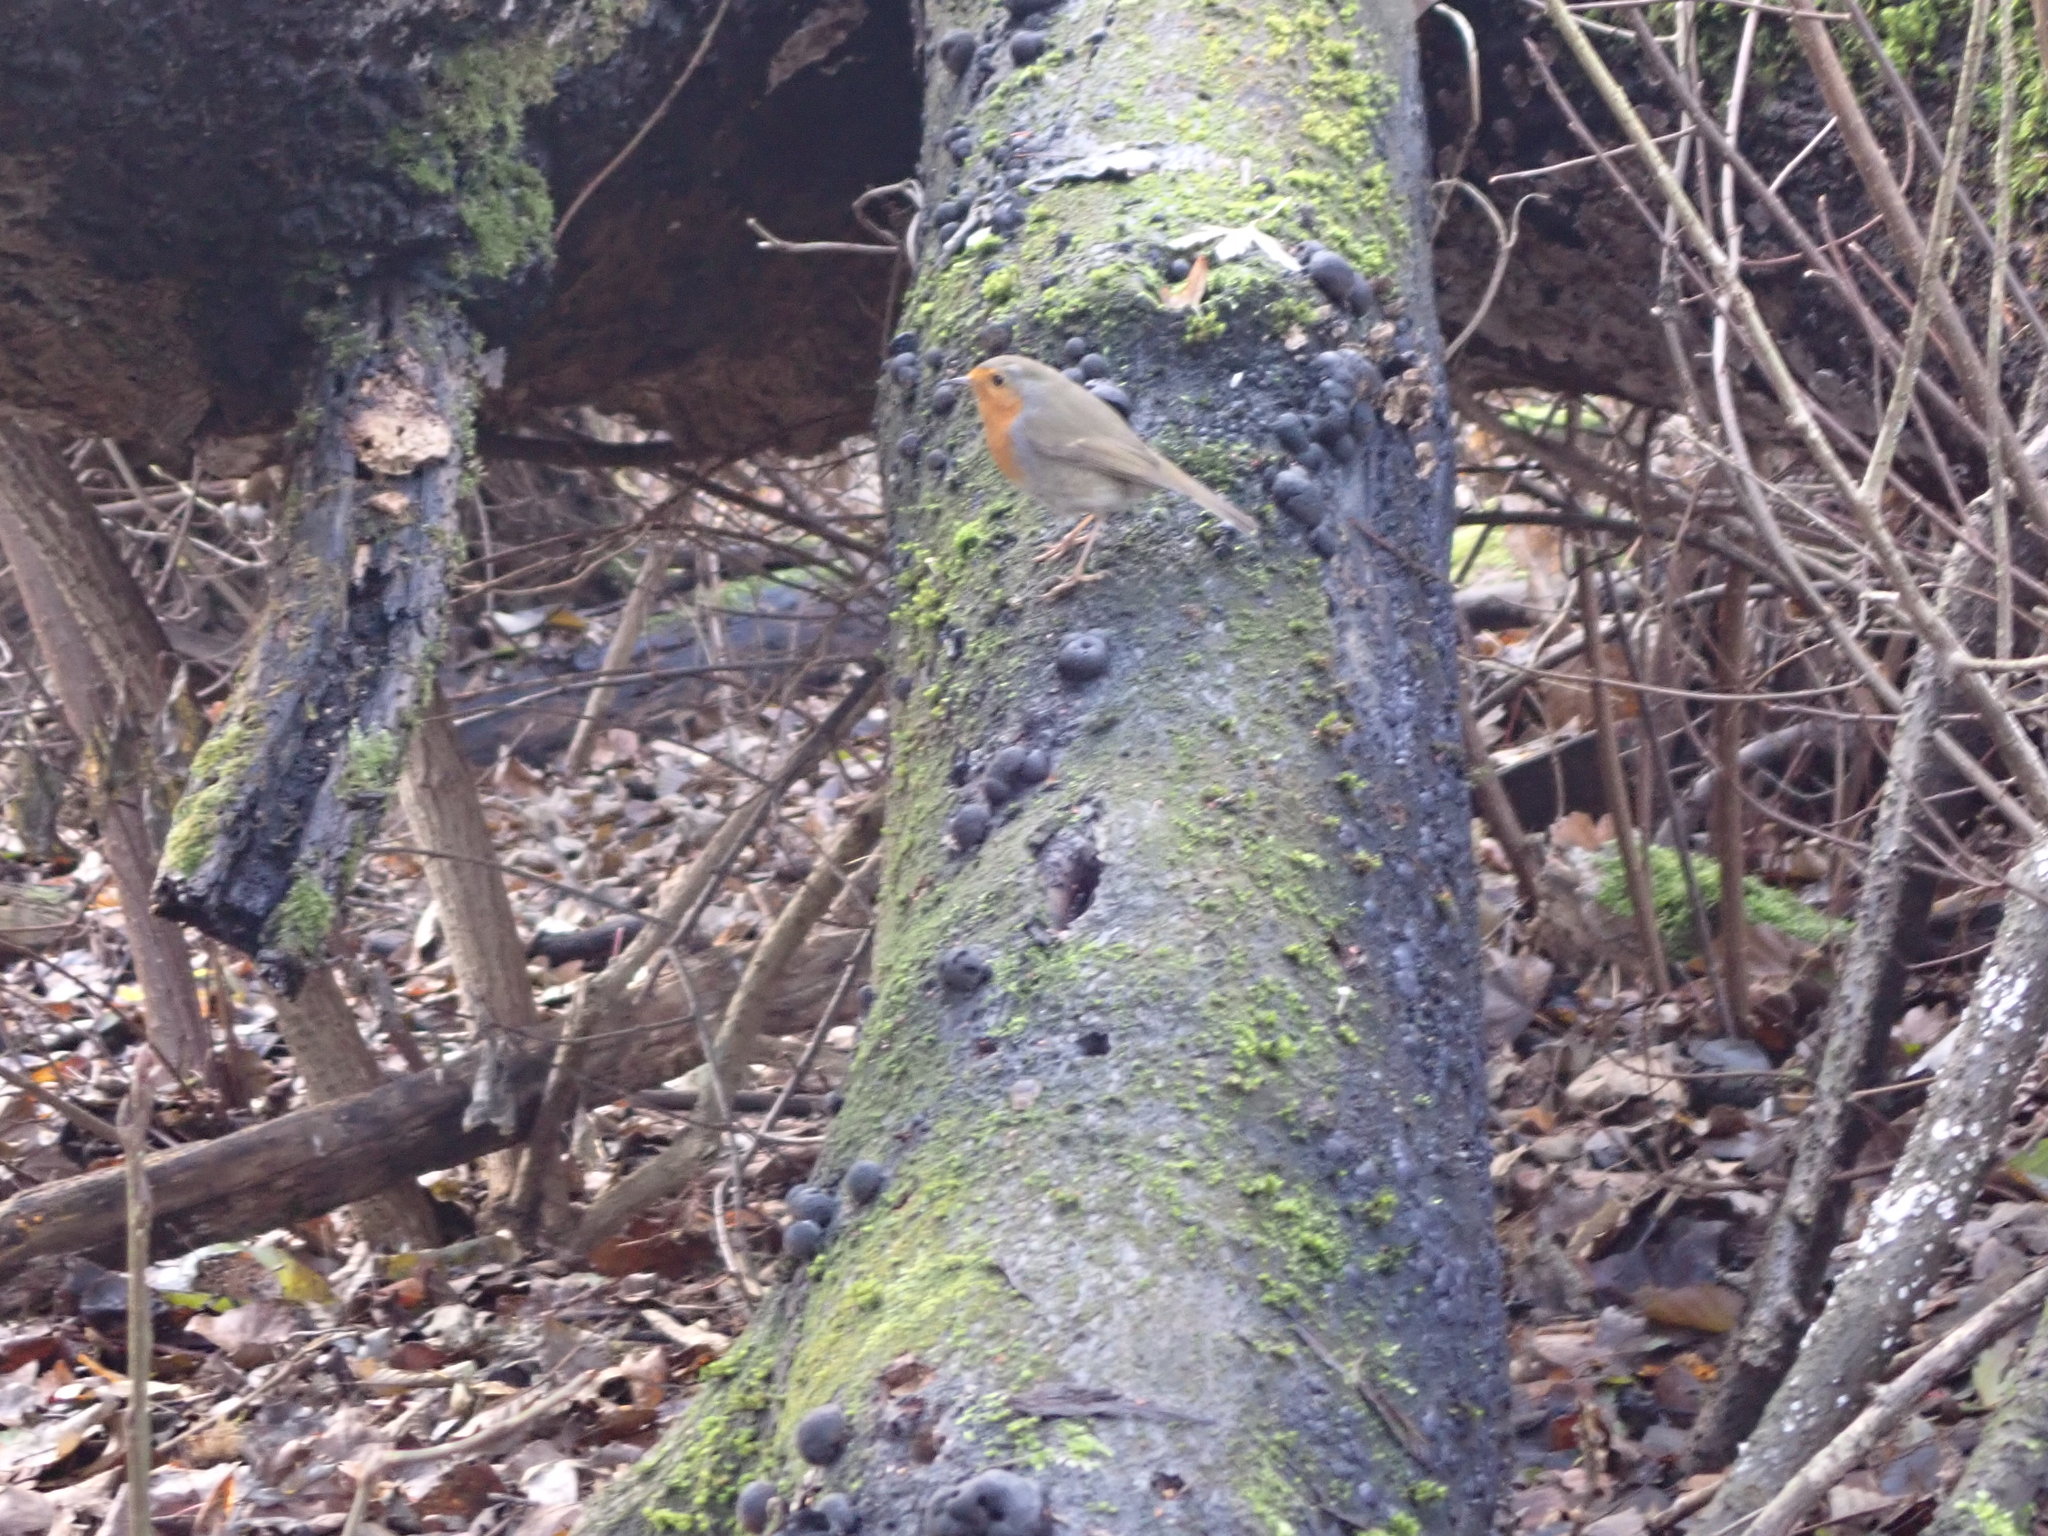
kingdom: Animalia
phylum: Chordata
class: Aves
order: Passeriformes
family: Muscicapidae
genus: Erithacus
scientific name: Erithacus rubecula
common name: European robin
